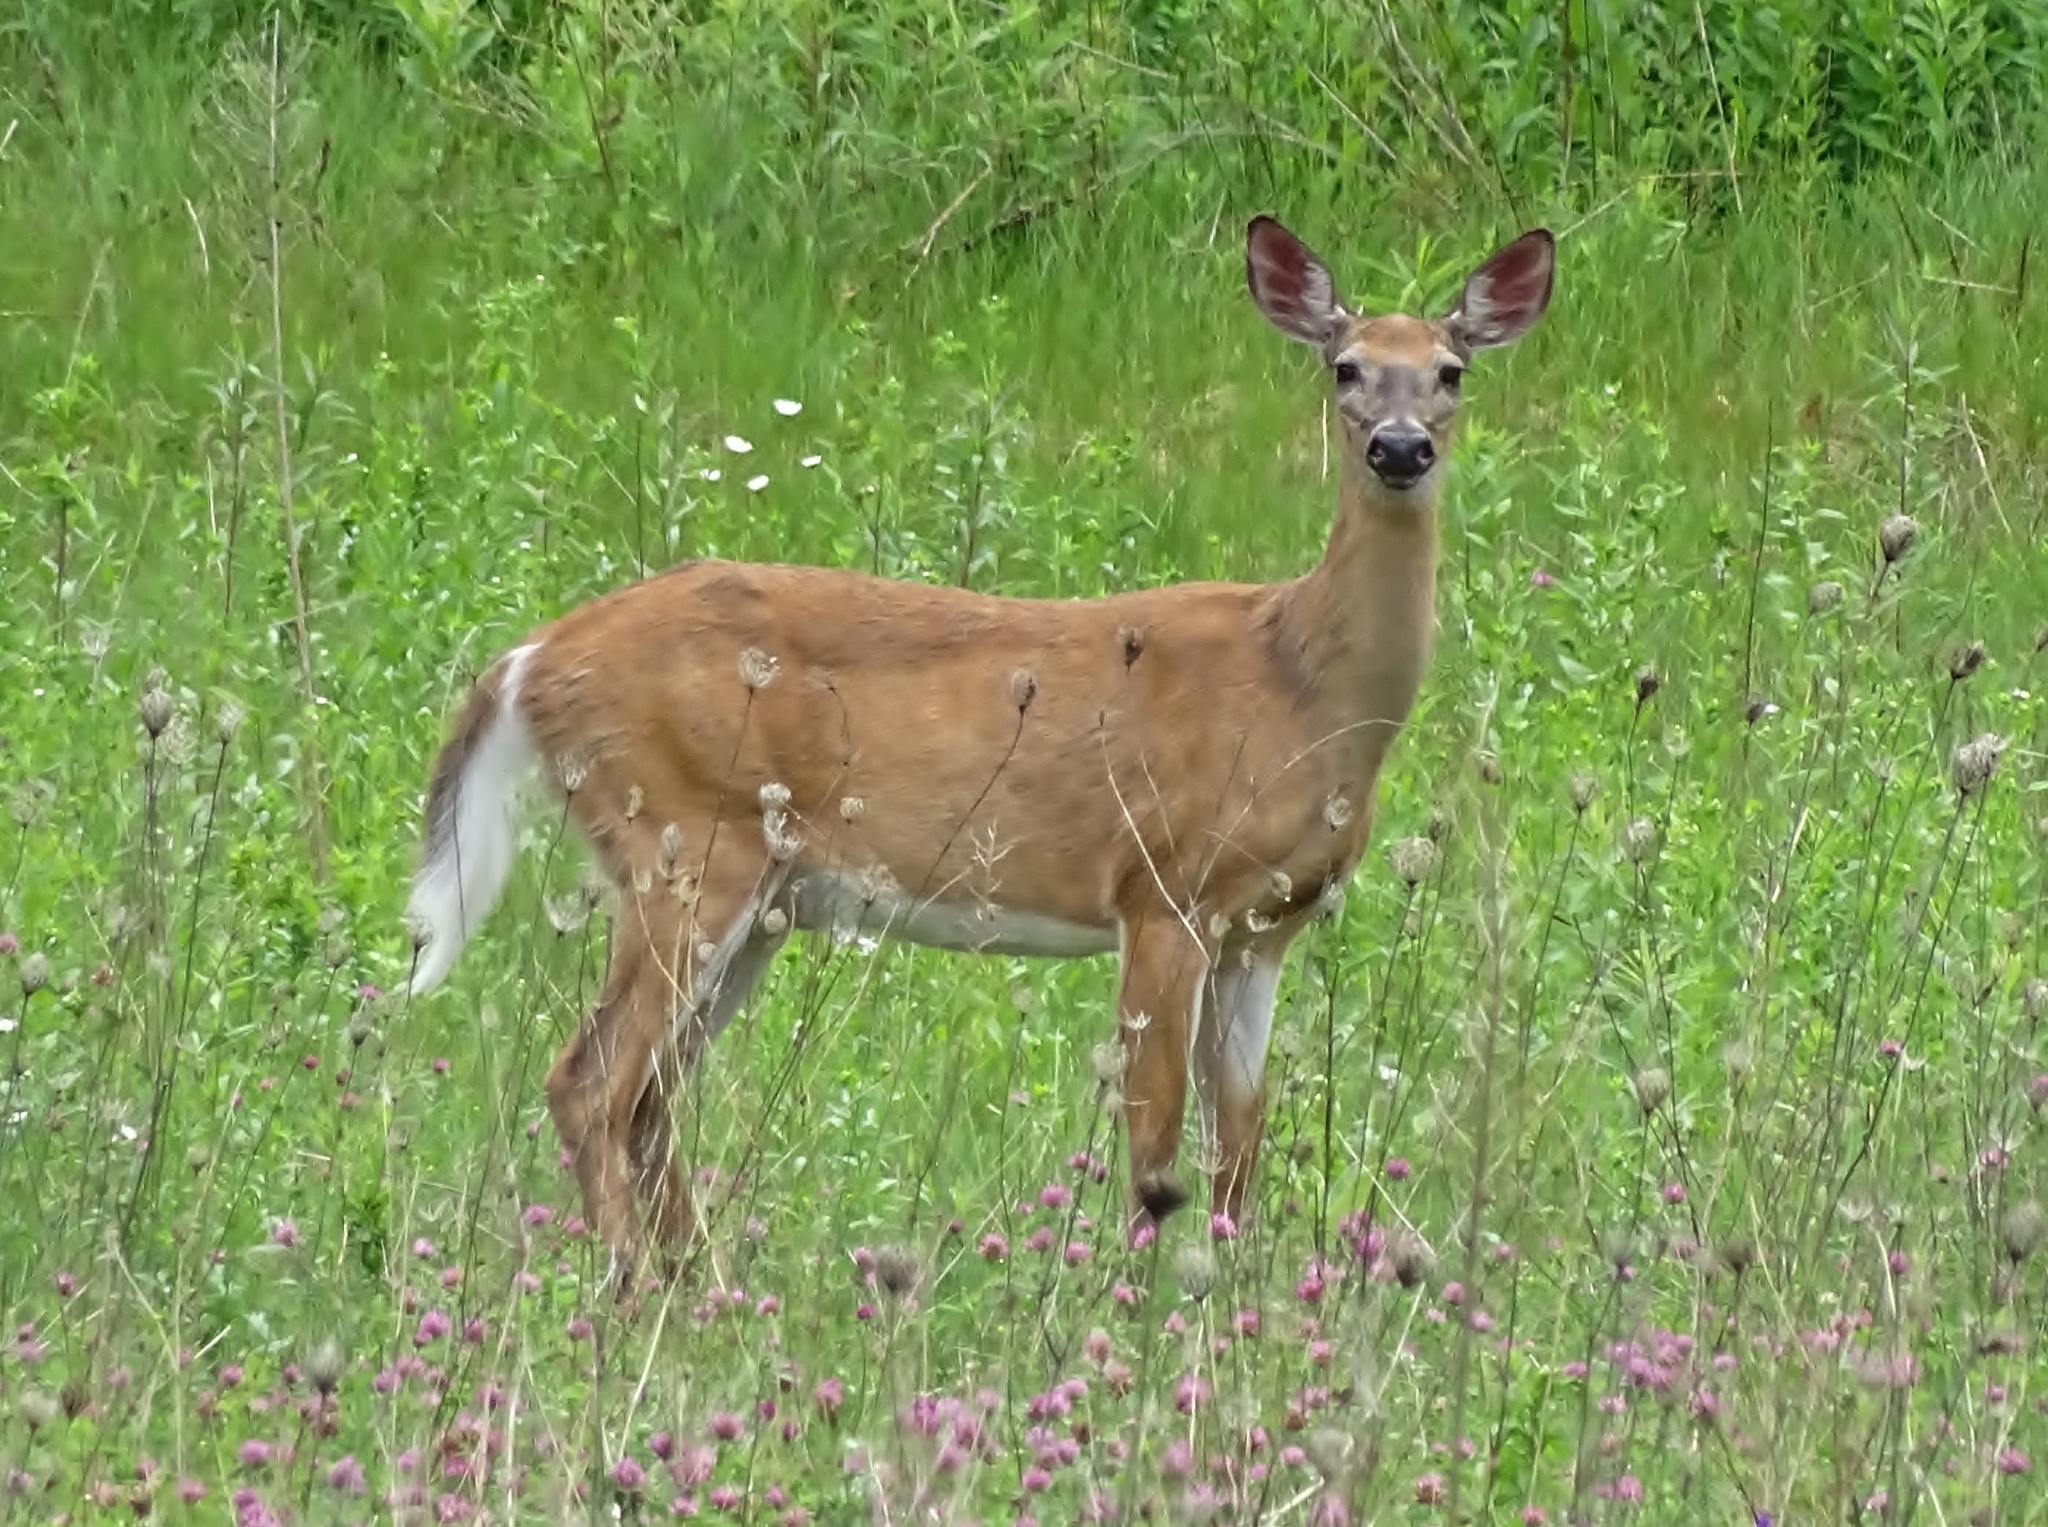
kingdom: Animalia
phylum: Chordata
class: Mammalia
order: Artiodactyla
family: Cervidae
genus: Odocoileus
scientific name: Odocoileus virginianus
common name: White-tailed deer
